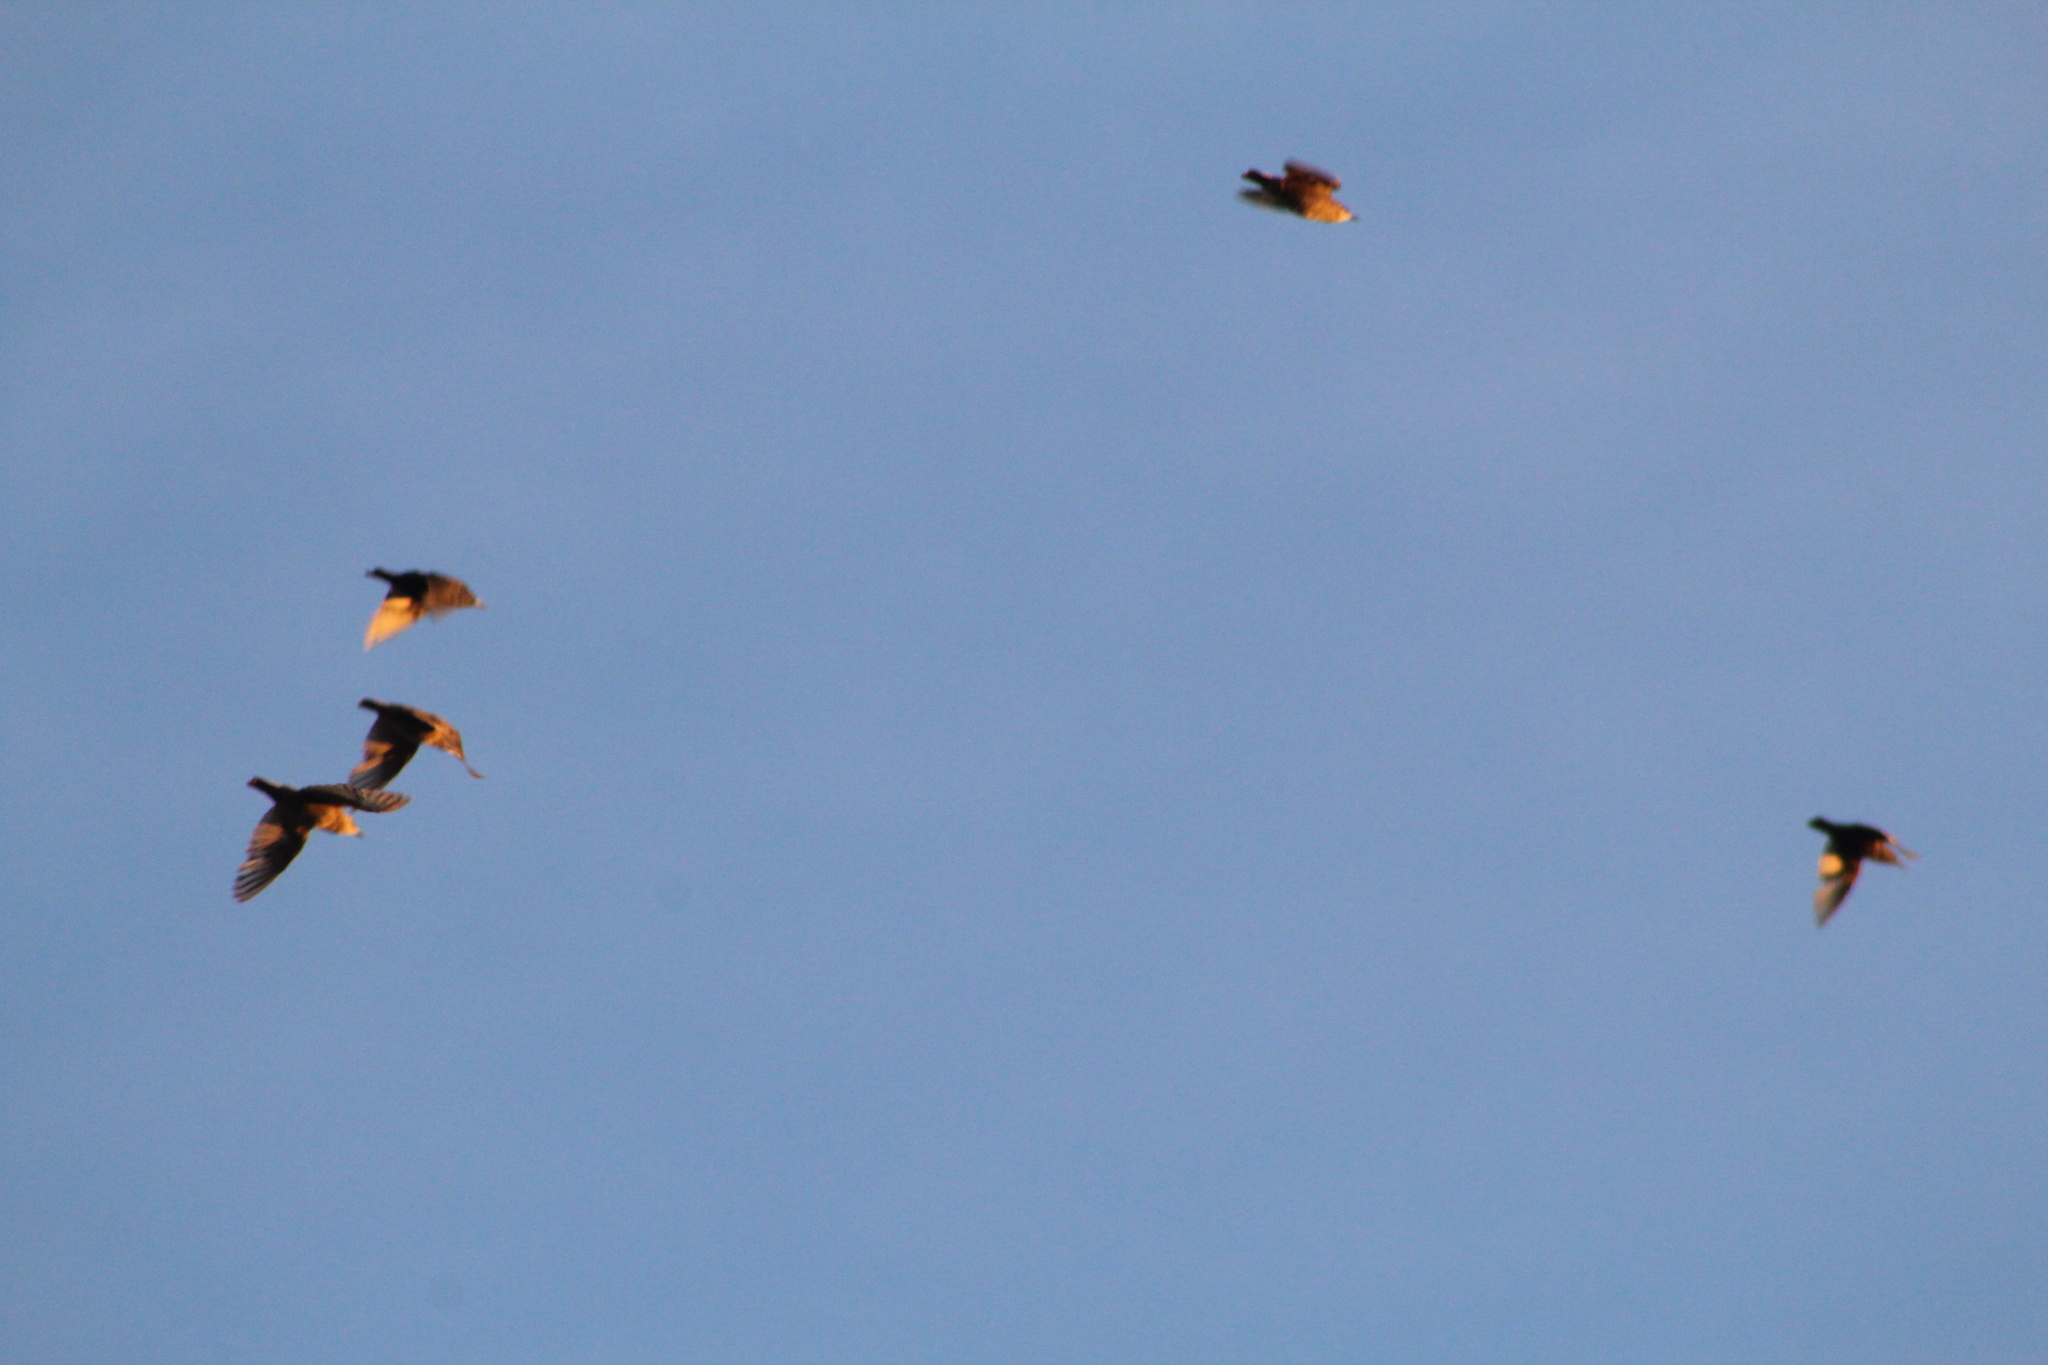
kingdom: Animalia
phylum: Chordata
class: Aves
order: Passeriformes
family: Sturnidae
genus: Sturnus
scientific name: Sturnus vulgaris
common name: Common starling
